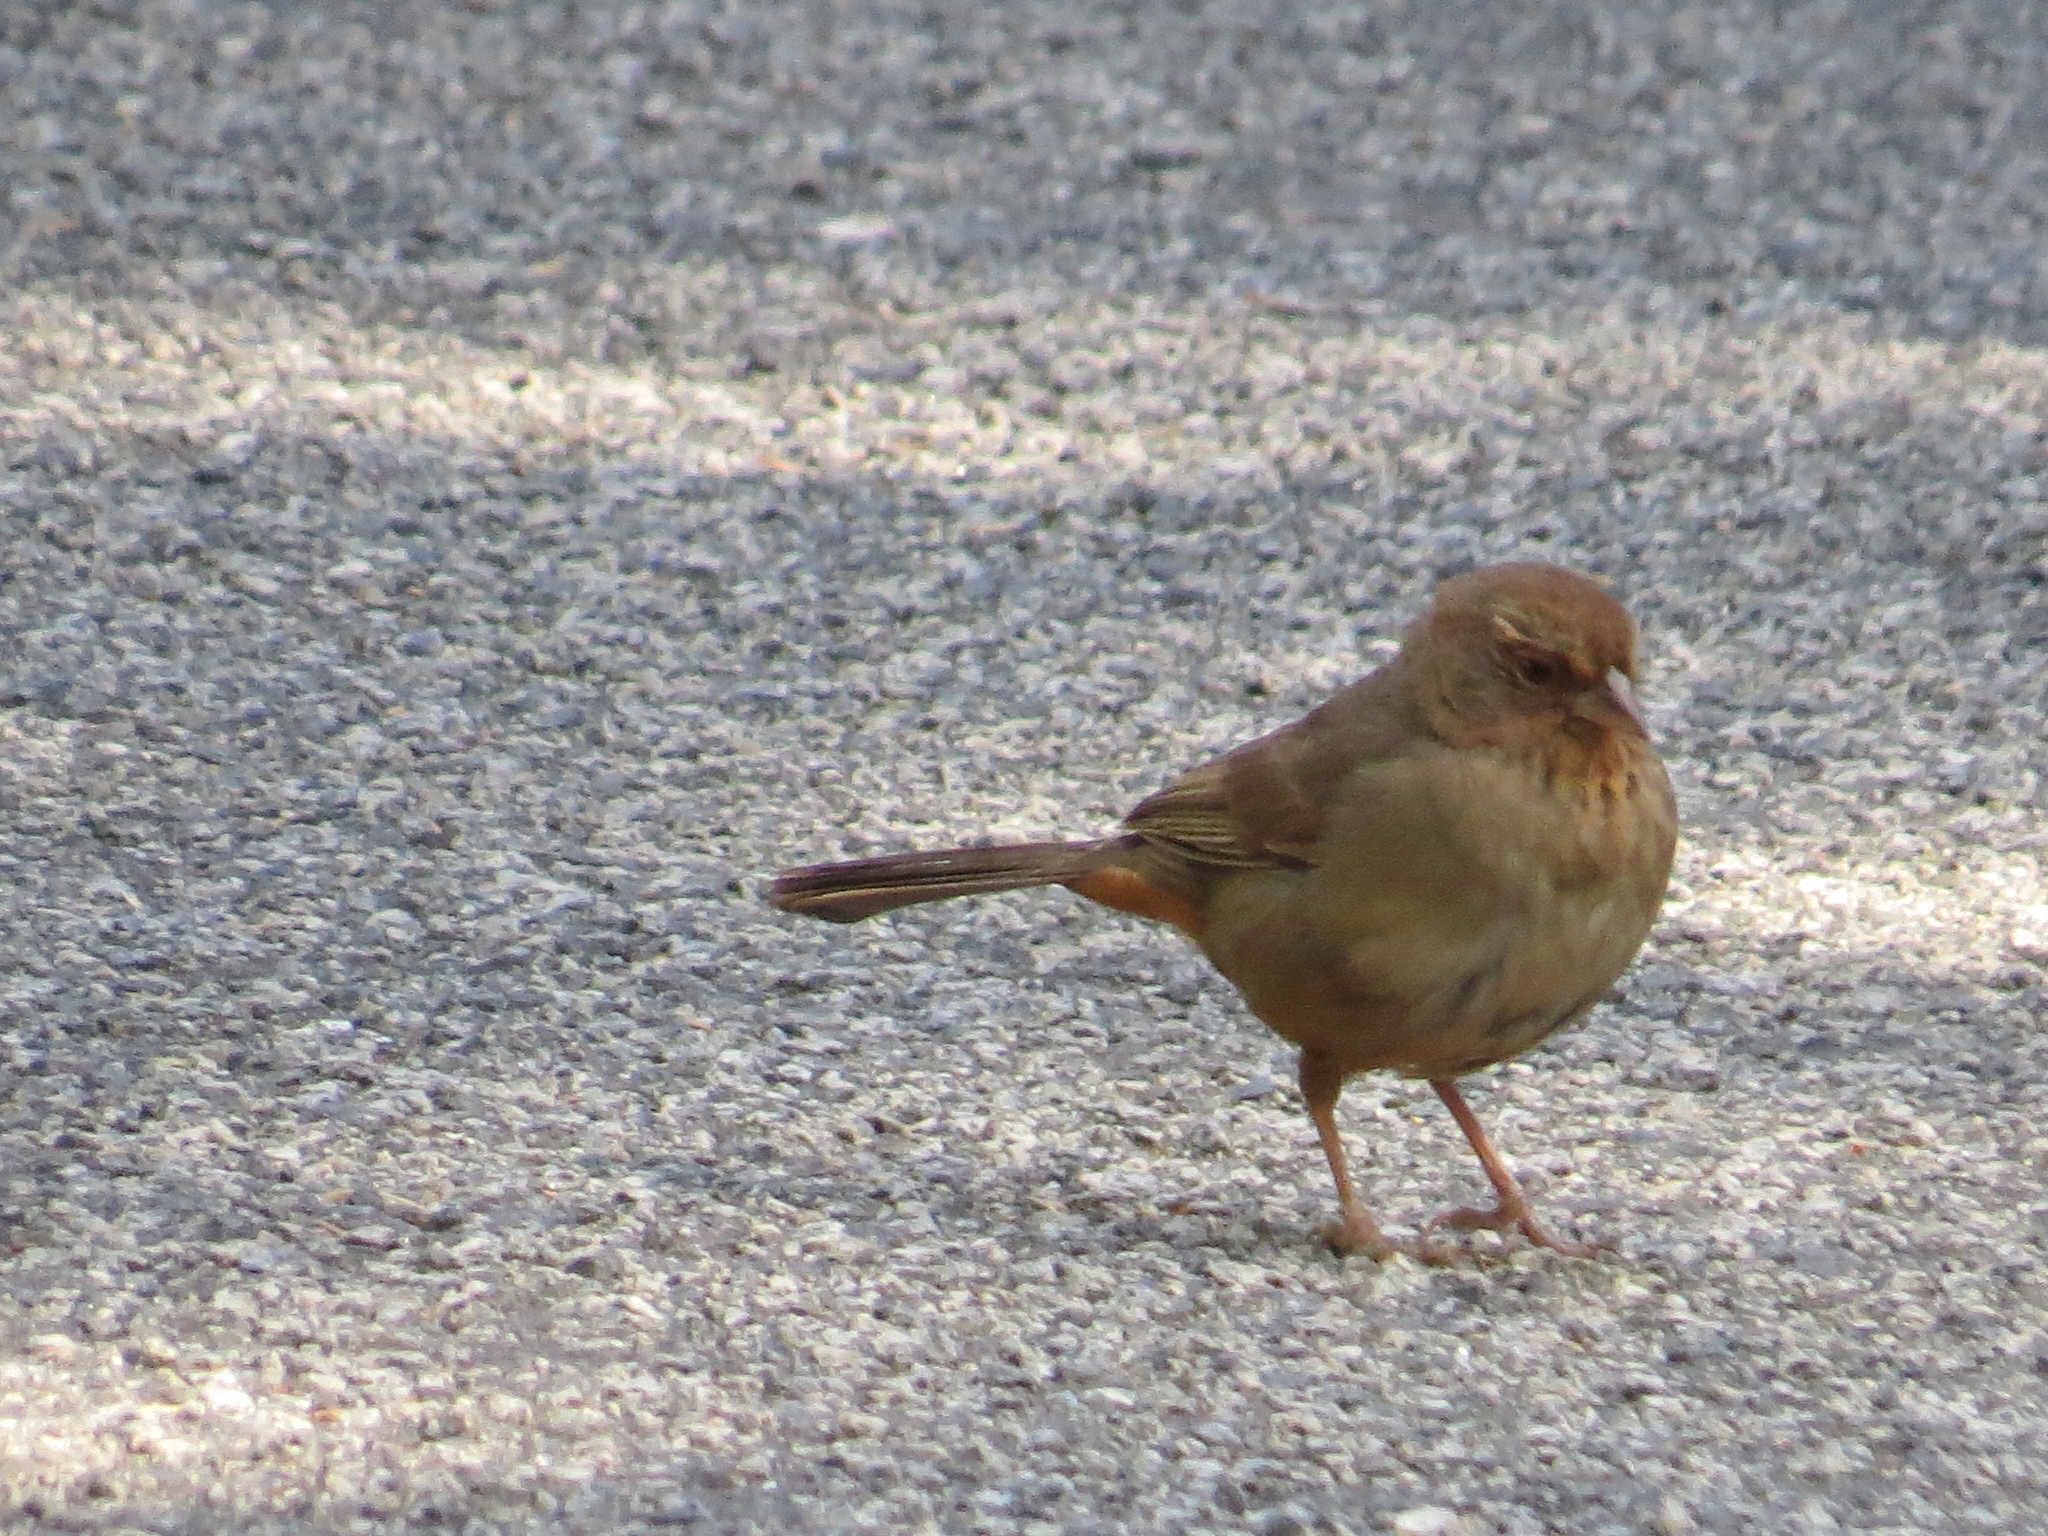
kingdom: Animalia
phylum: Chordata
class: Aves
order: Passeriformes
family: Passerellidae
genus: Melozone
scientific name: Melozone crissalis
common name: California towhee
